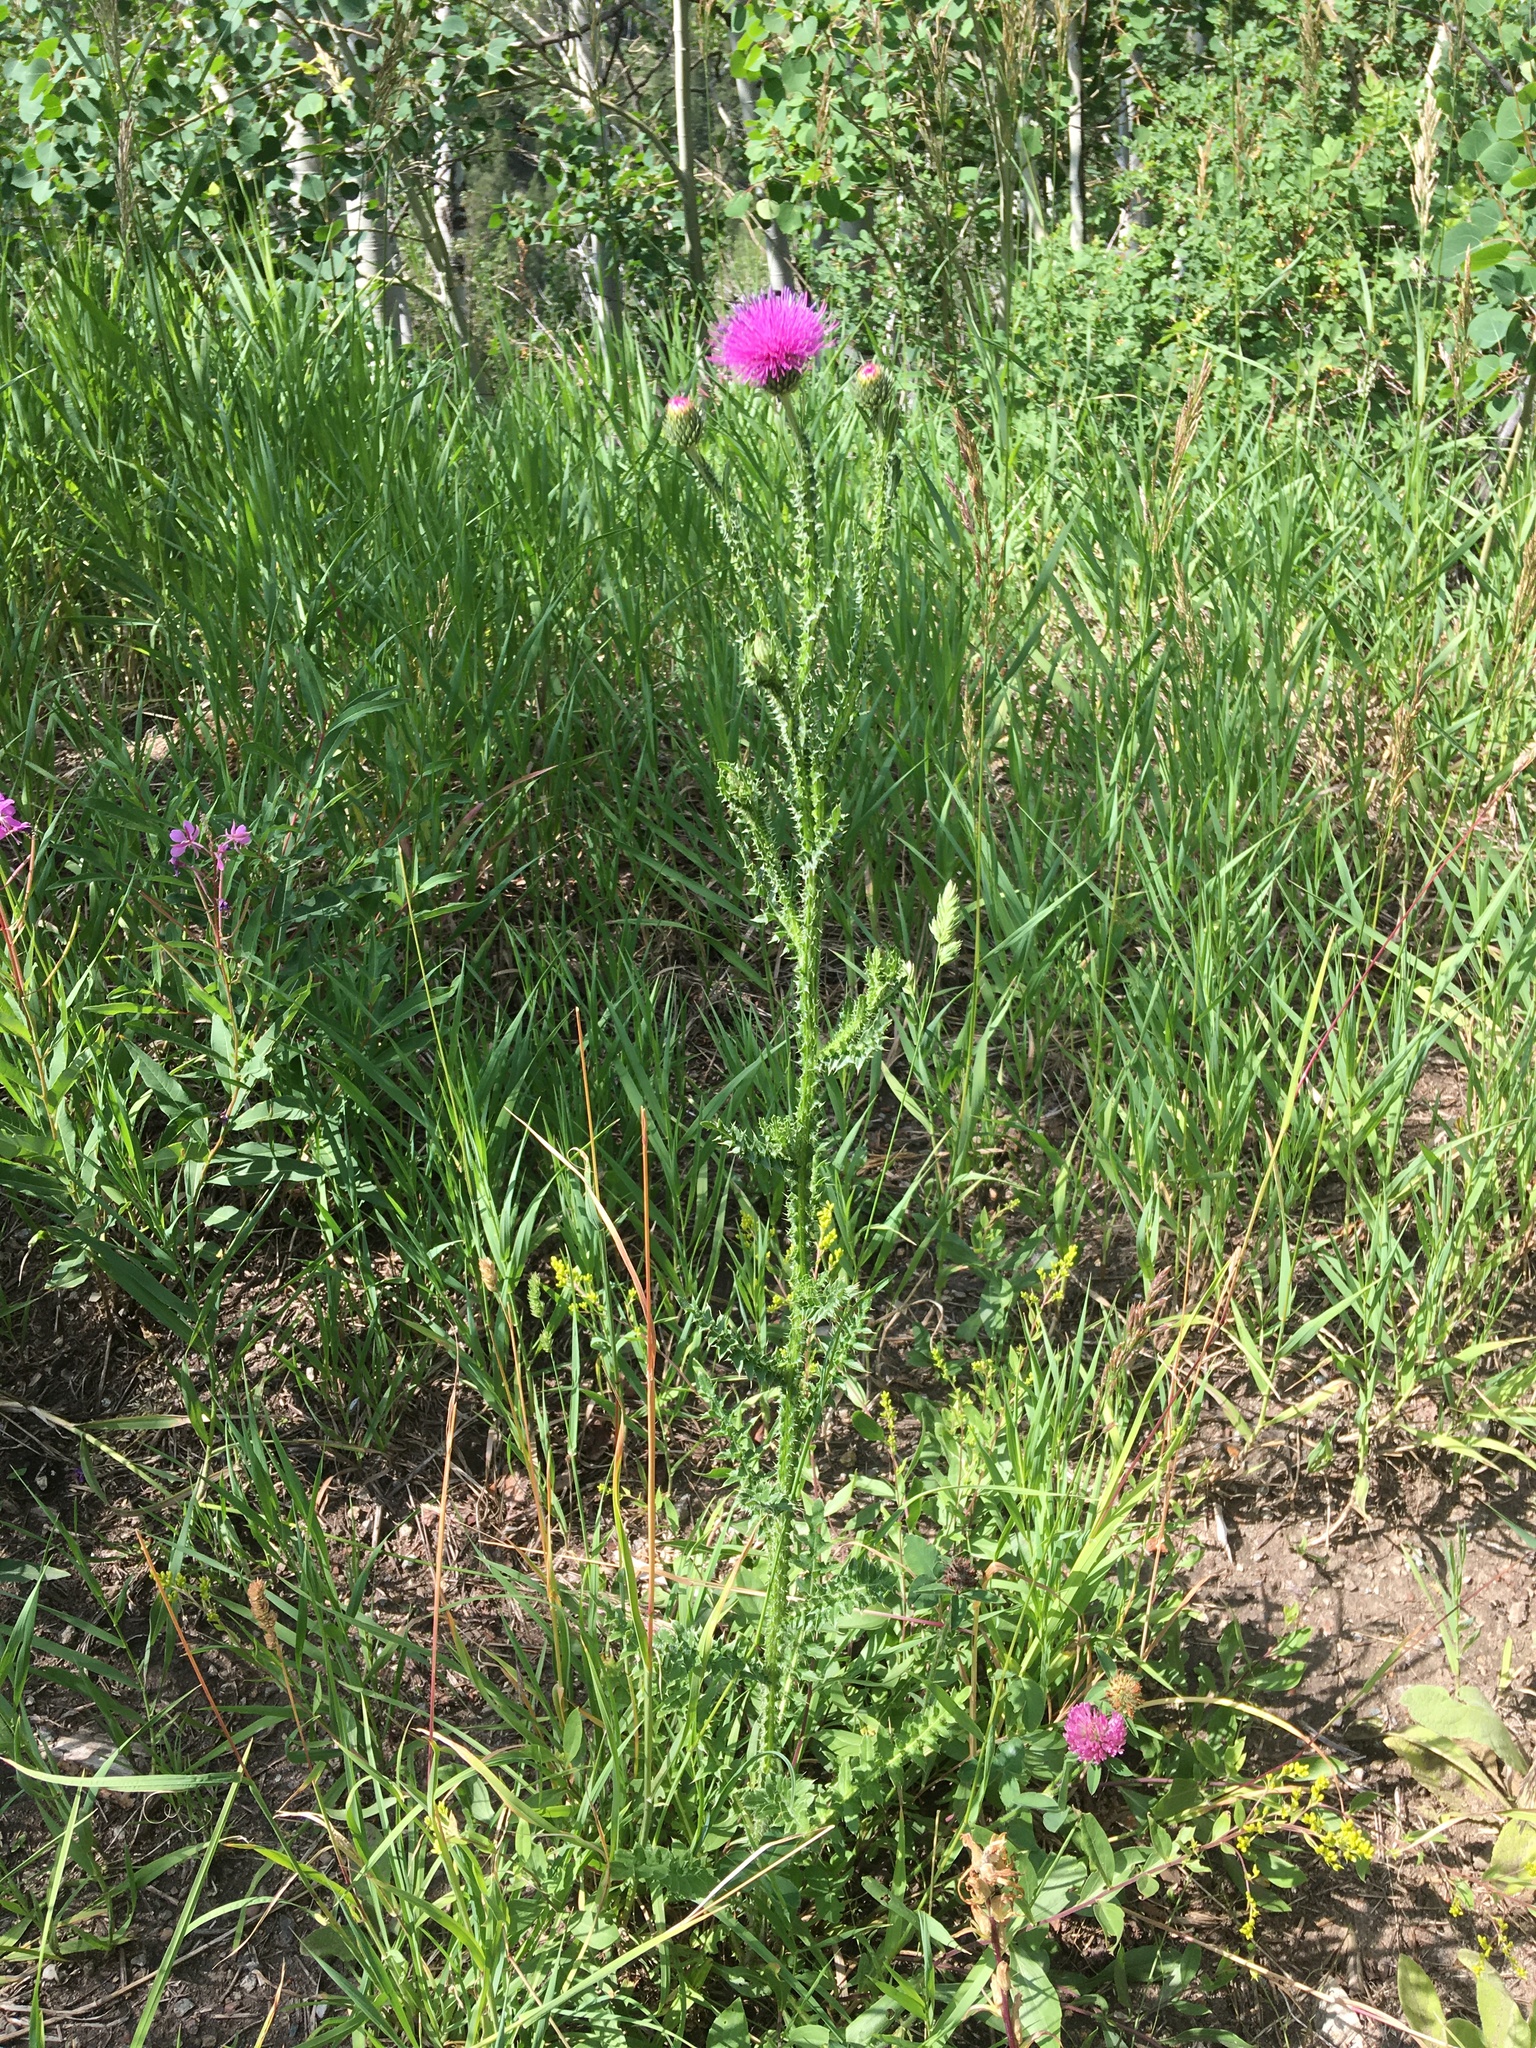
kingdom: Plantae
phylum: Tracheophyta
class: Magnoliopsida
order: Asterales
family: Asteraceae
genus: Carduus
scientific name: Carduus acanthoides
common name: Plumeless thistle
